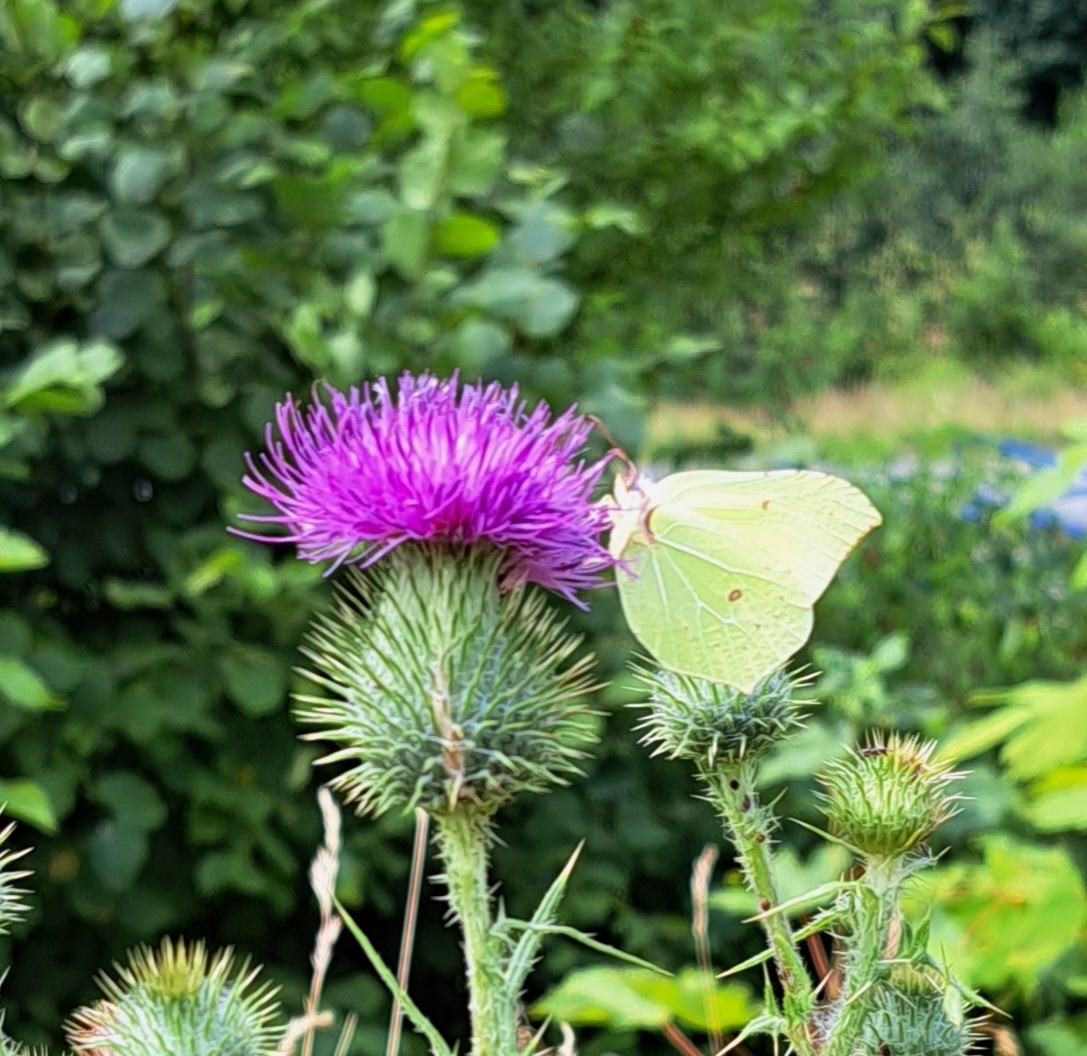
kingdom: Animalia
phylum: Arthropoda
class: Insecta
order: Lepidoptera
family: Pieridae
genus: Gonepteryx
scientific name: Gonepteryx rhamni
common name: Brimstone
